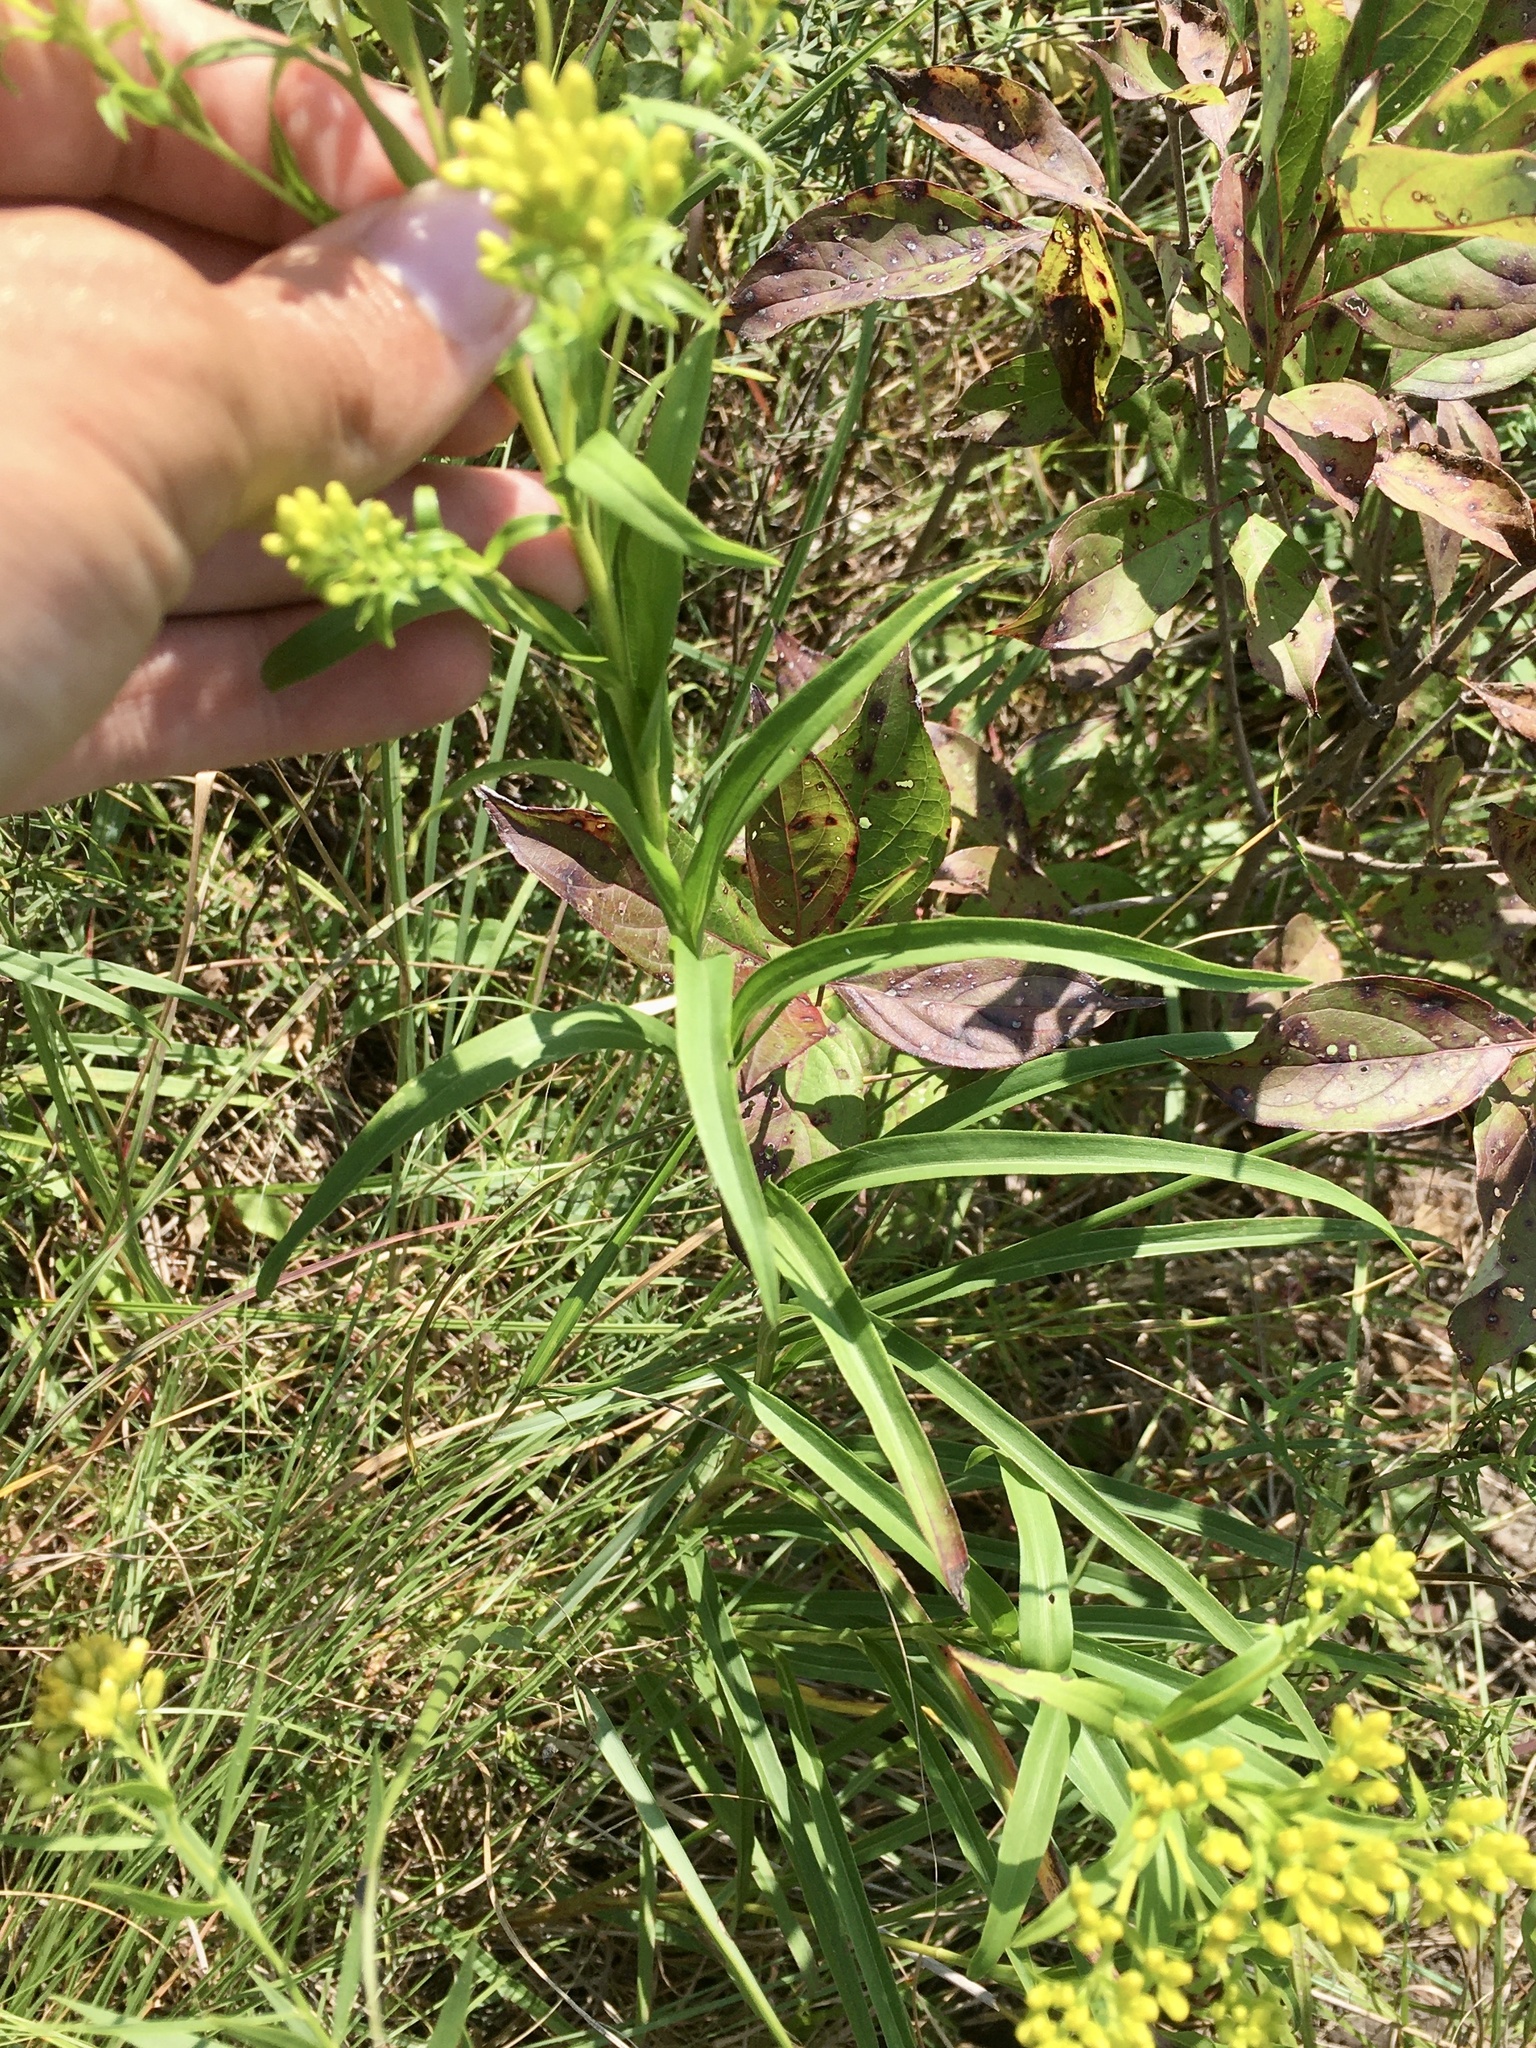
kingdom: Plantae
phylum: Tracheophyta
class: Magnoliopsida
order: Asterales
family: Asteraceae
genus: Solidago
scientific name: Solidago riddellii
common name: Riddell's goldenrod
